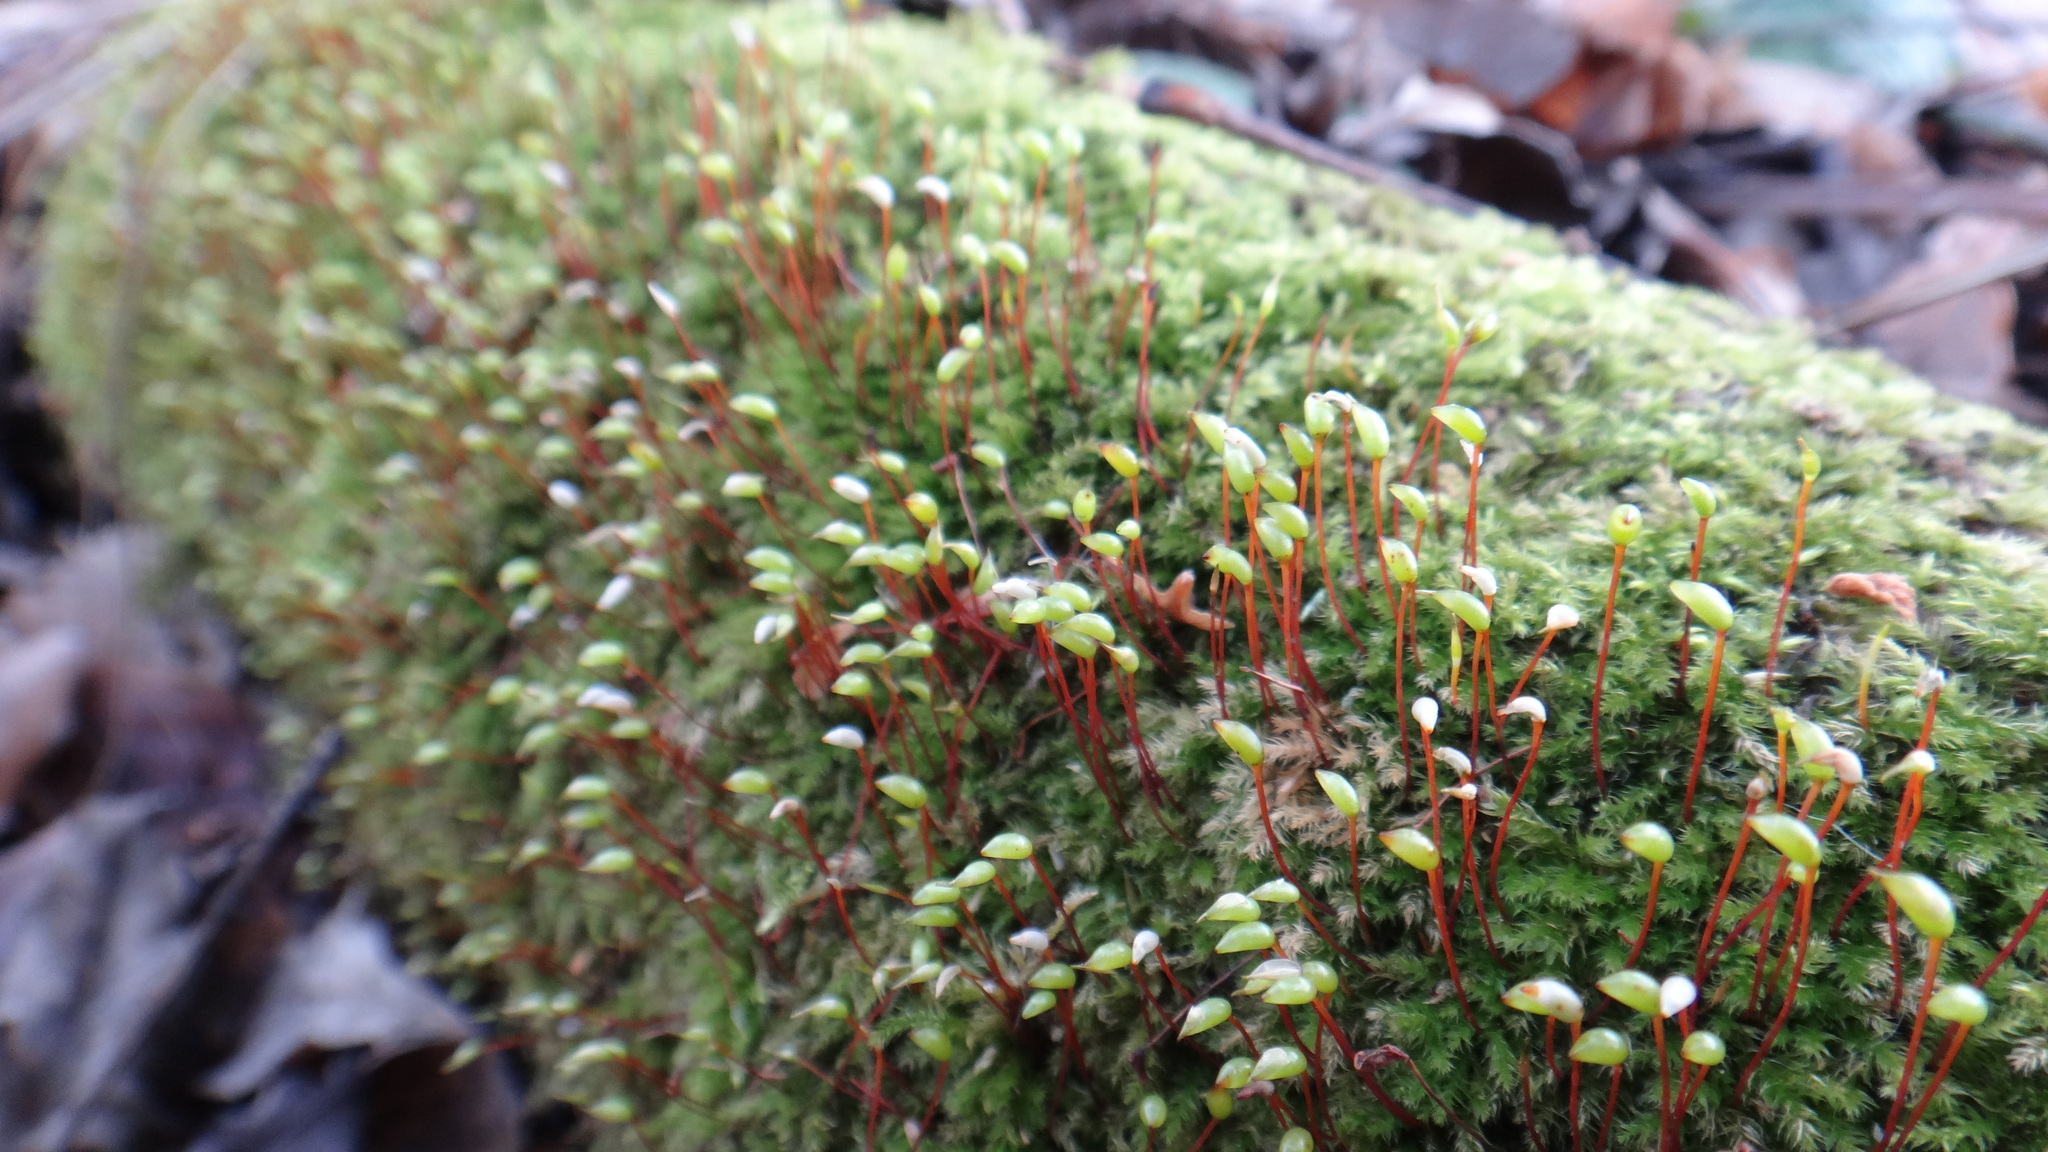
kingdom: Plantae
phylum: Bryophyta
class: Bryopsida
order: Hypnales
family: Brachytheciaceae
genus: Brachytheciastrum
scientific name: Brachytheciastrum velutinum
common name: Velvet feather-moss
